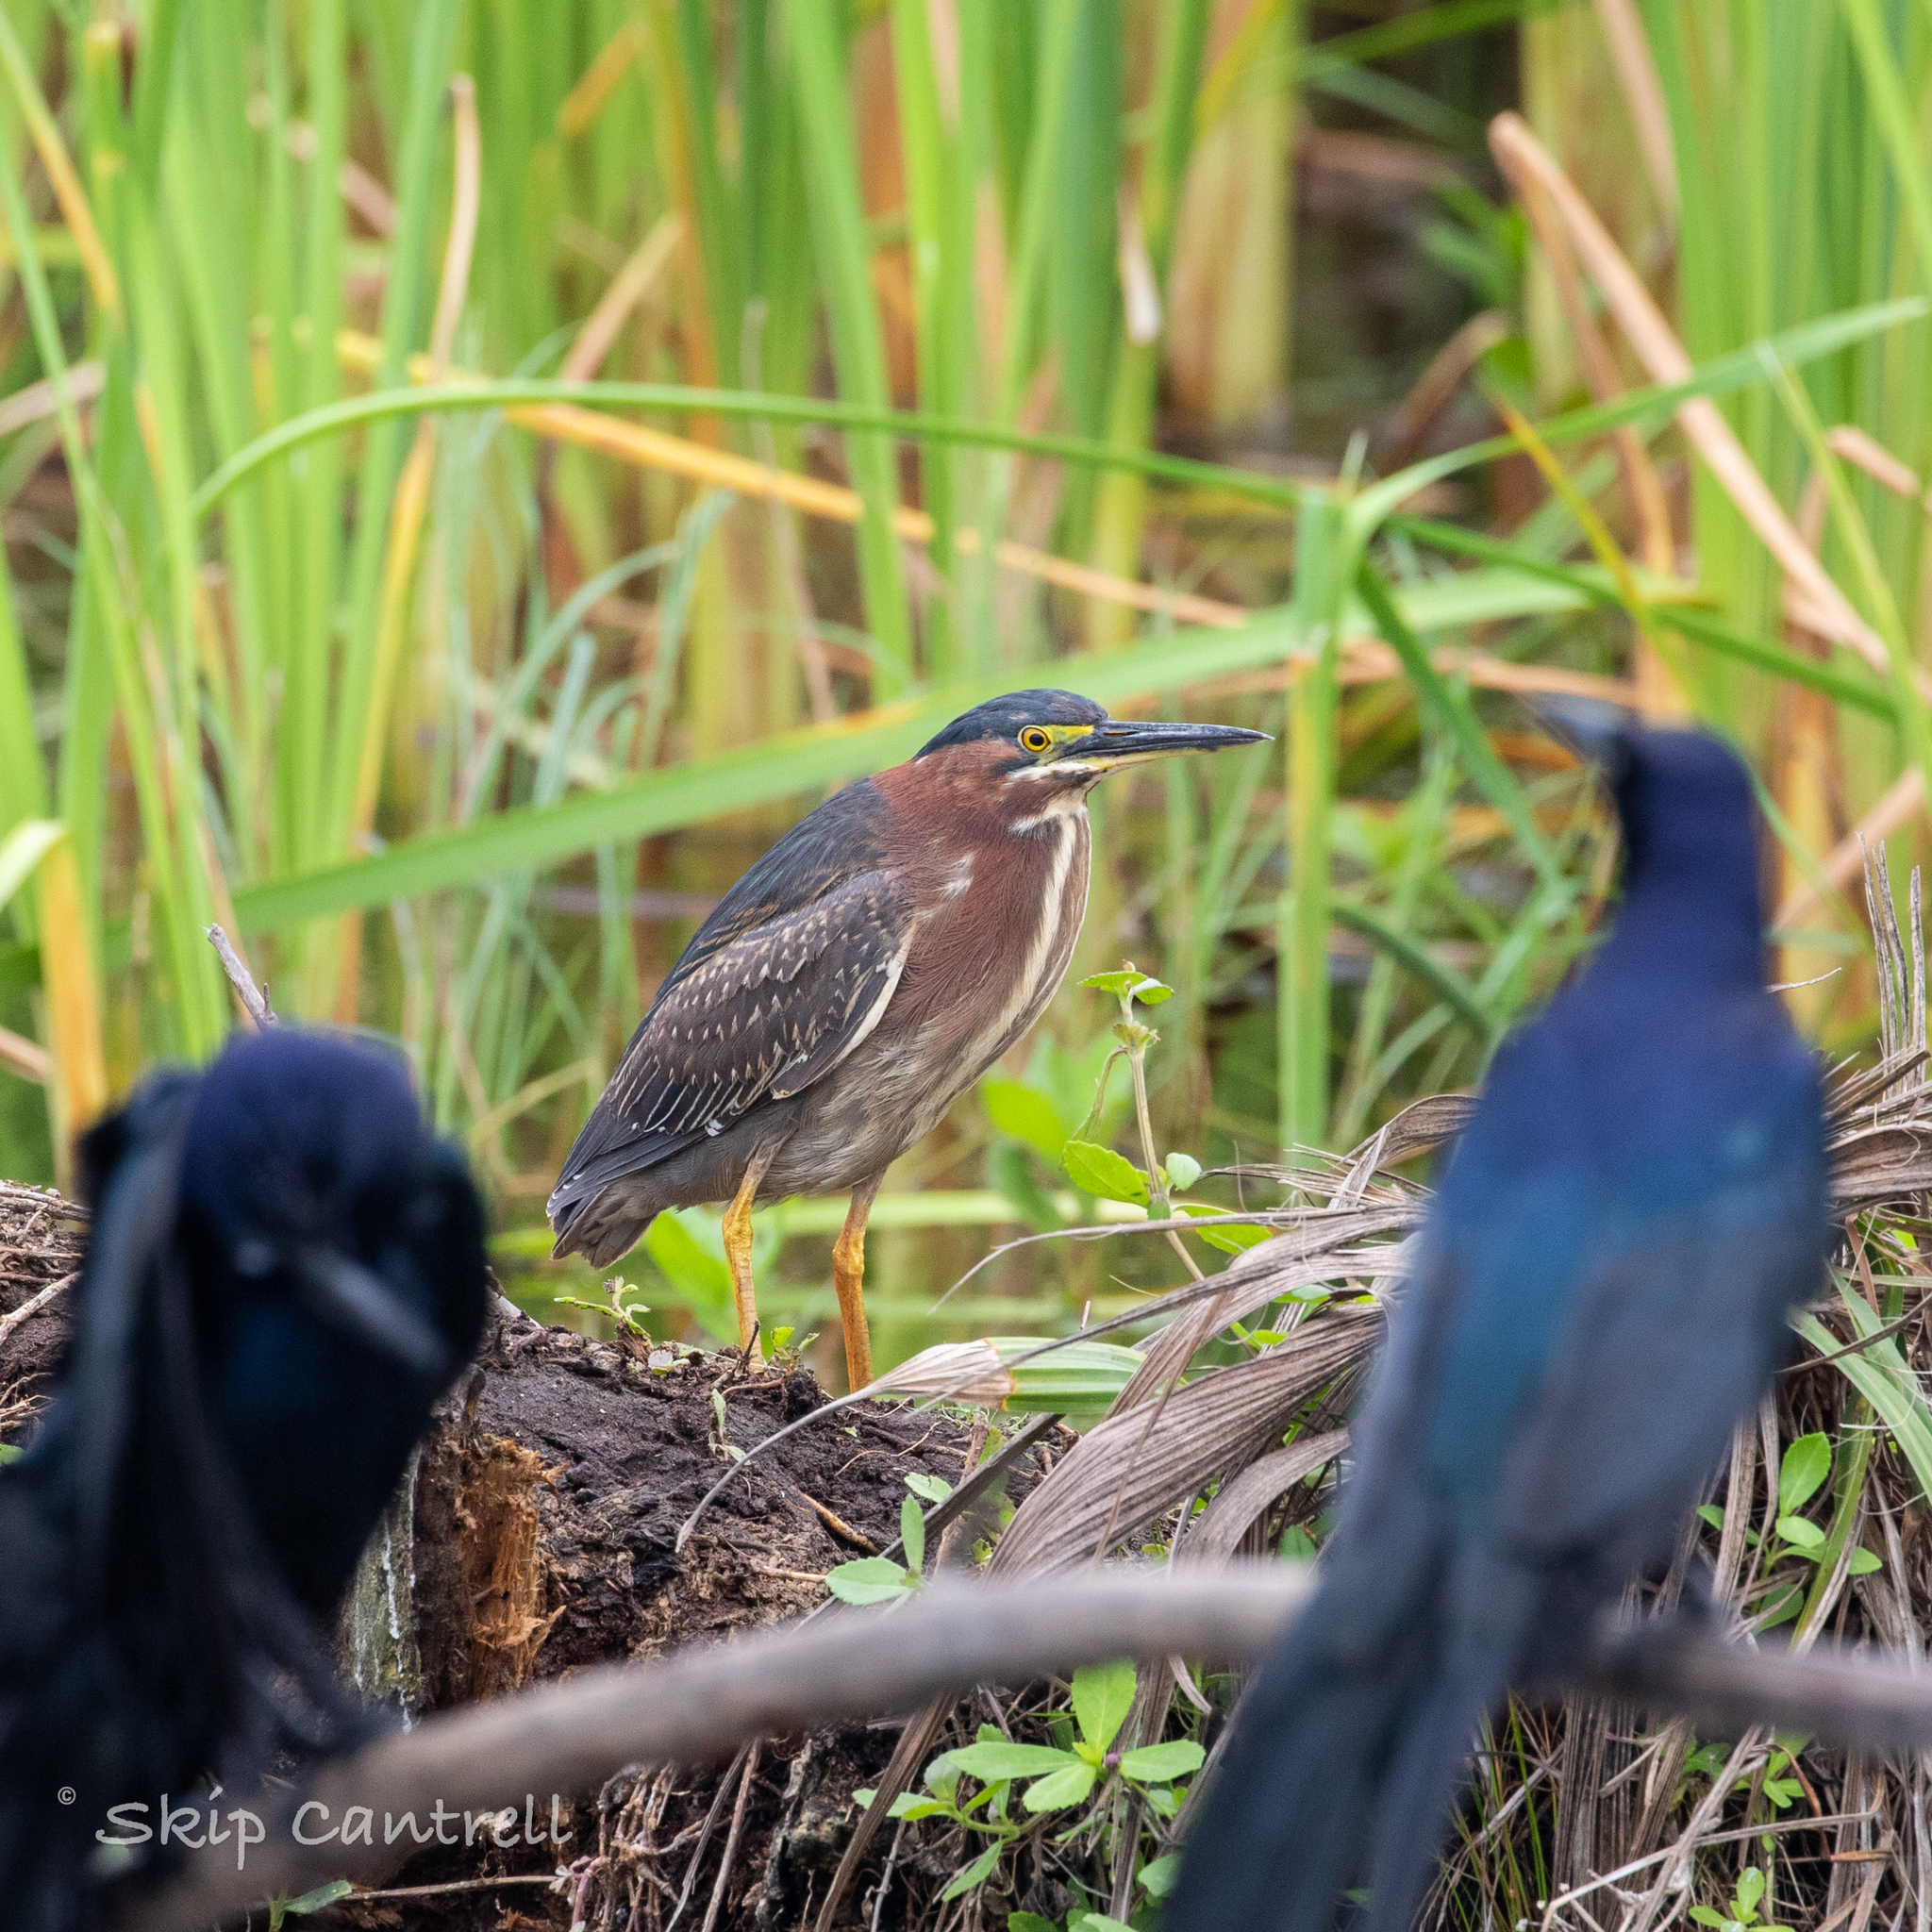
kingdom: Animalia
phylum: Chordata
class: Aves
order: Pelecaniformes
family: Ardeidae
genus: Butorides
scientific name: Butorides virescens
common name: Green heron
